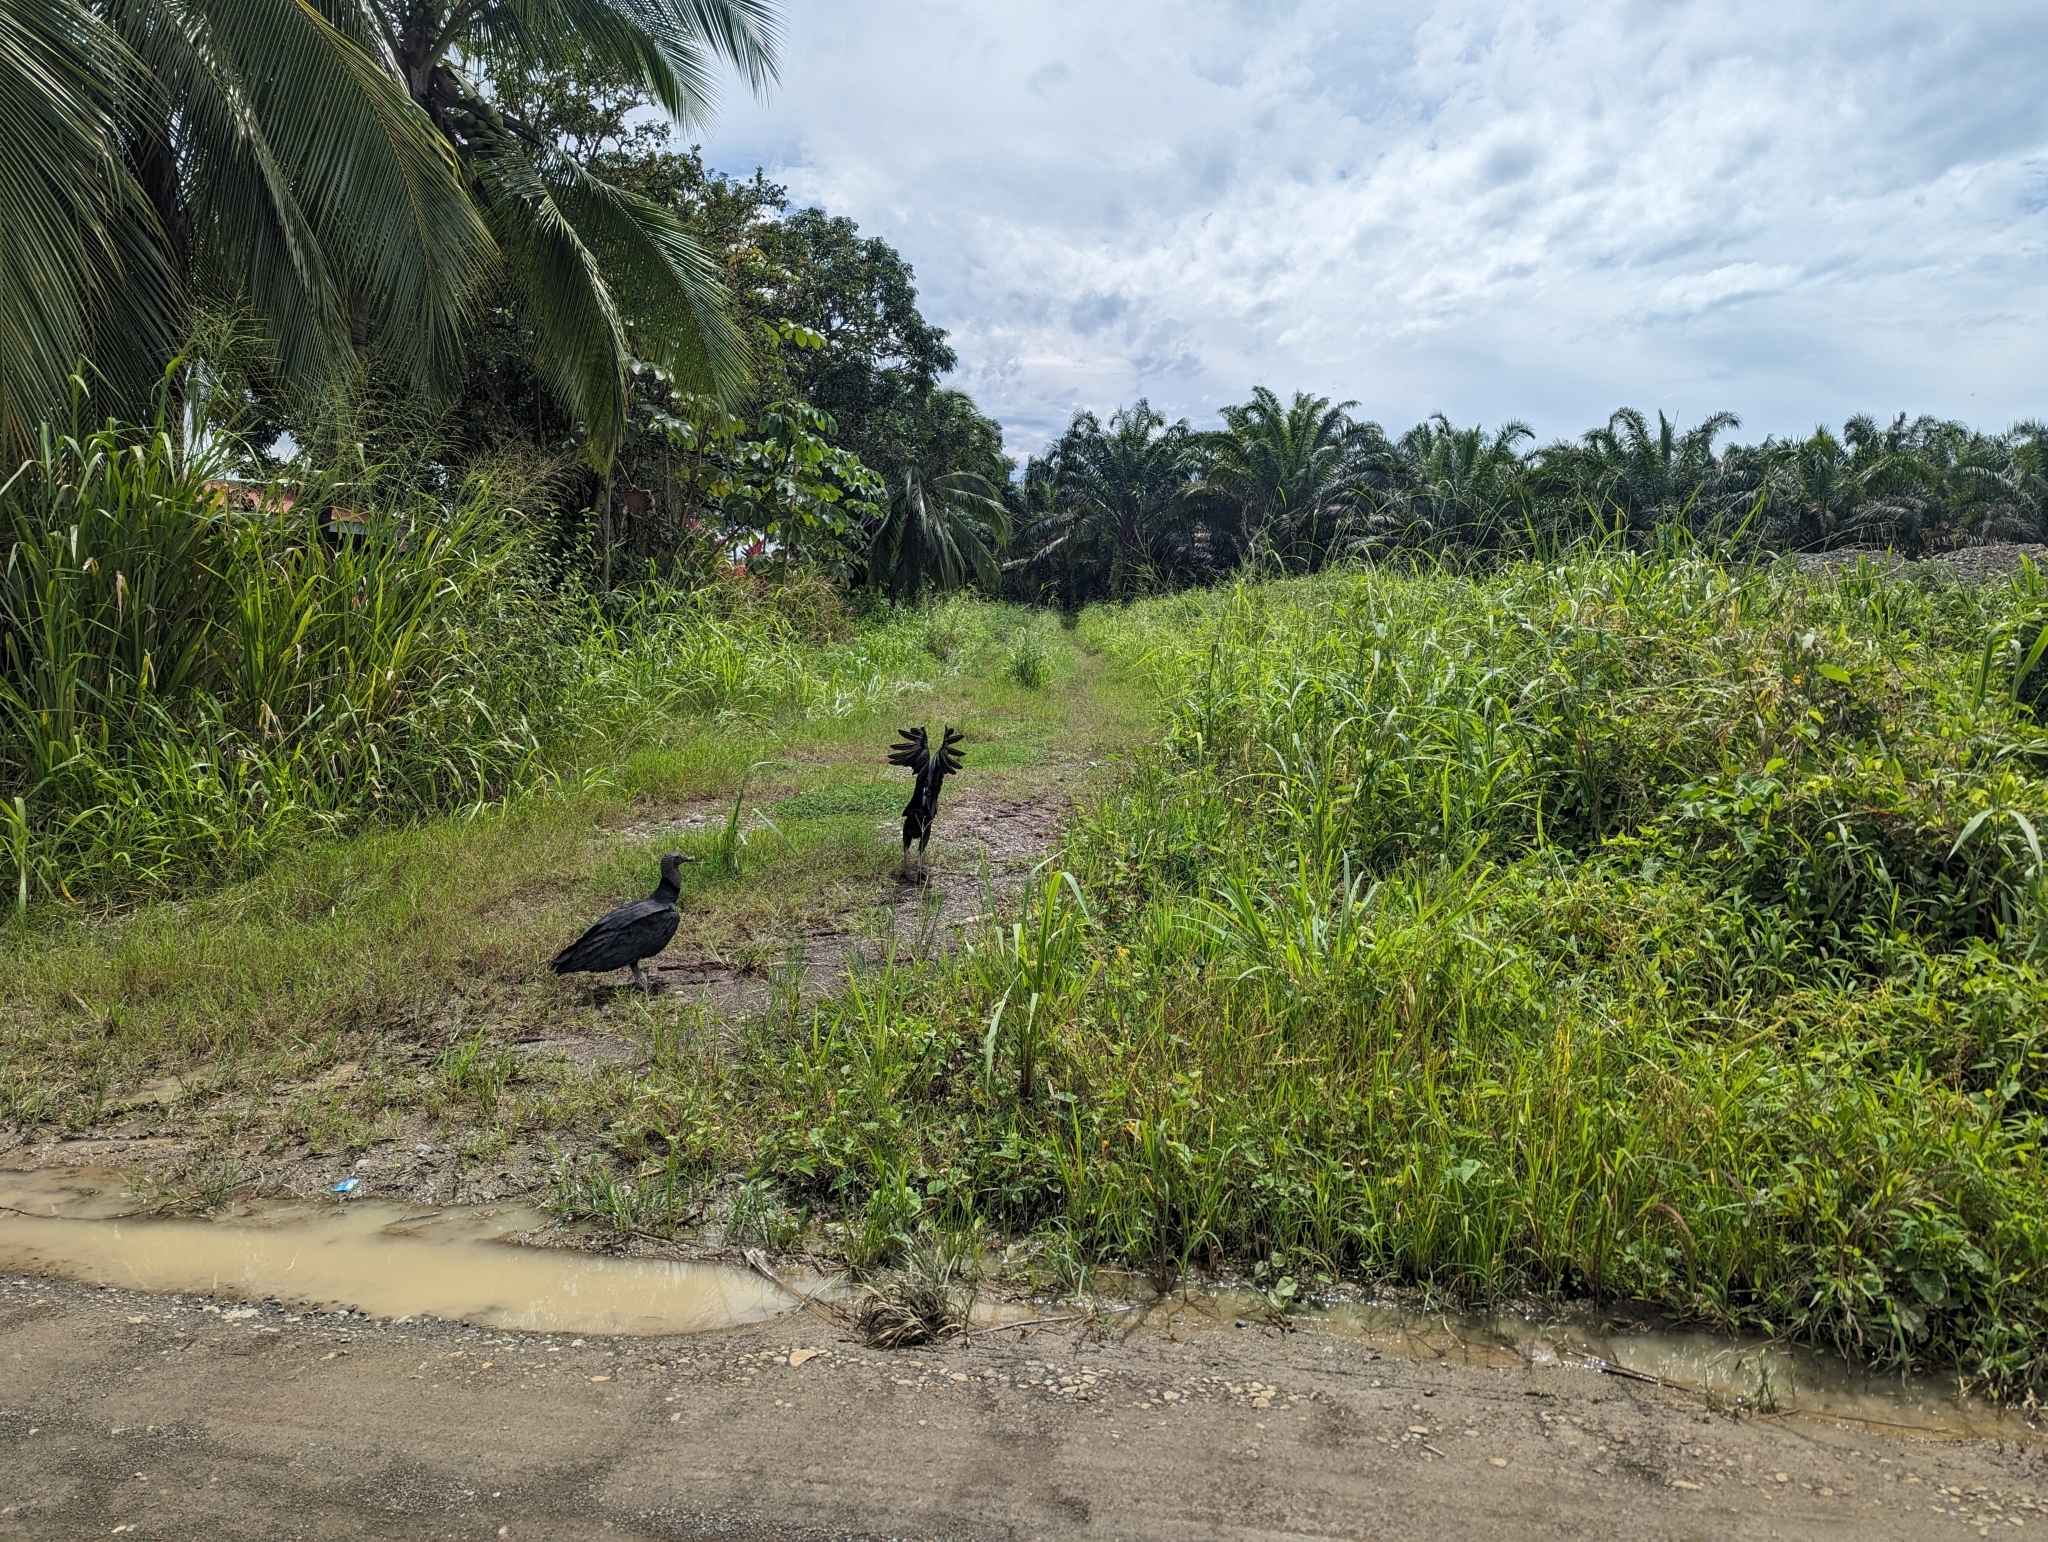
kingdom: Animalia
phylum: Chordata
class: Aves
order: Accipitriformes
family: Cathartidae
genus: Coragyps
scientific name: Coragyps atratus
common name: Black vulture
